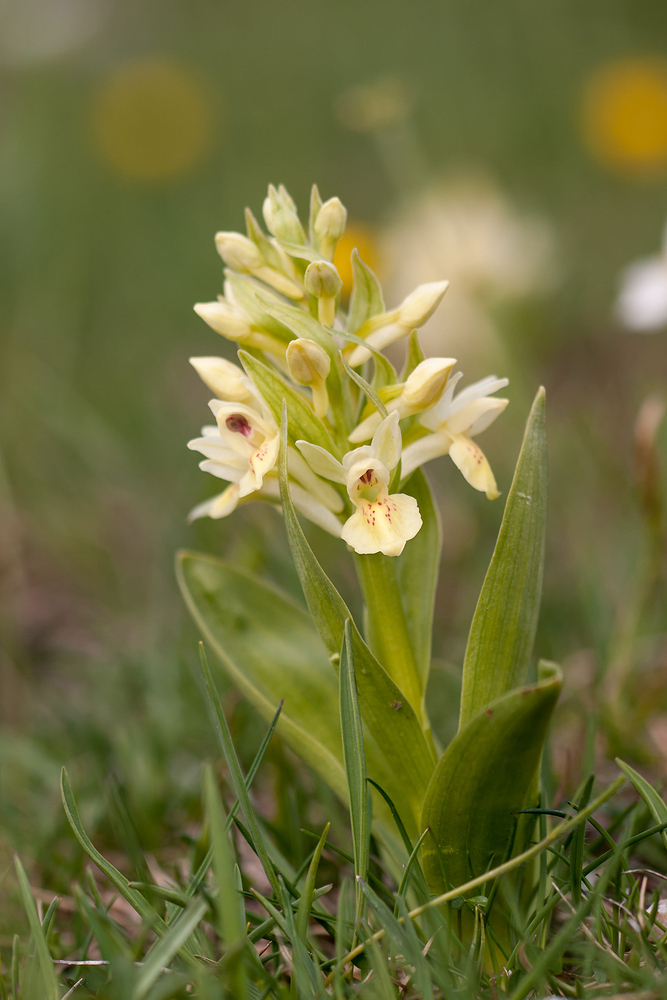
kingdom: Plantae
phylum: Tracheophyta
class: Liliopsida
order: Asparagales
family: Orchidaceae
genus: Dactylorhiza
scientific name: Dactylorhiza sambucina
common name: Elder-flowered orchid
